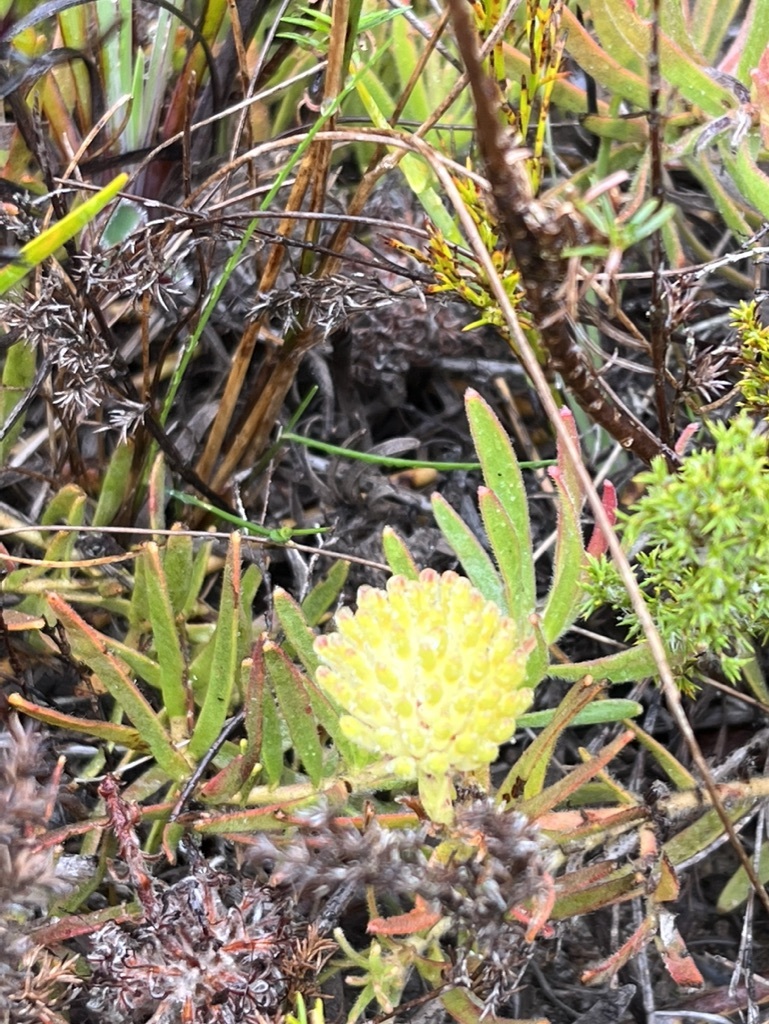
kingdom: Plantae
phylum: Tracheophyta
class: Magnoliopsida
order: Proteales
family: Proteaceae
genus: Leucospermum
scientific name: Leucospermum prostratum
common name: Yellow-trailing pincushion
